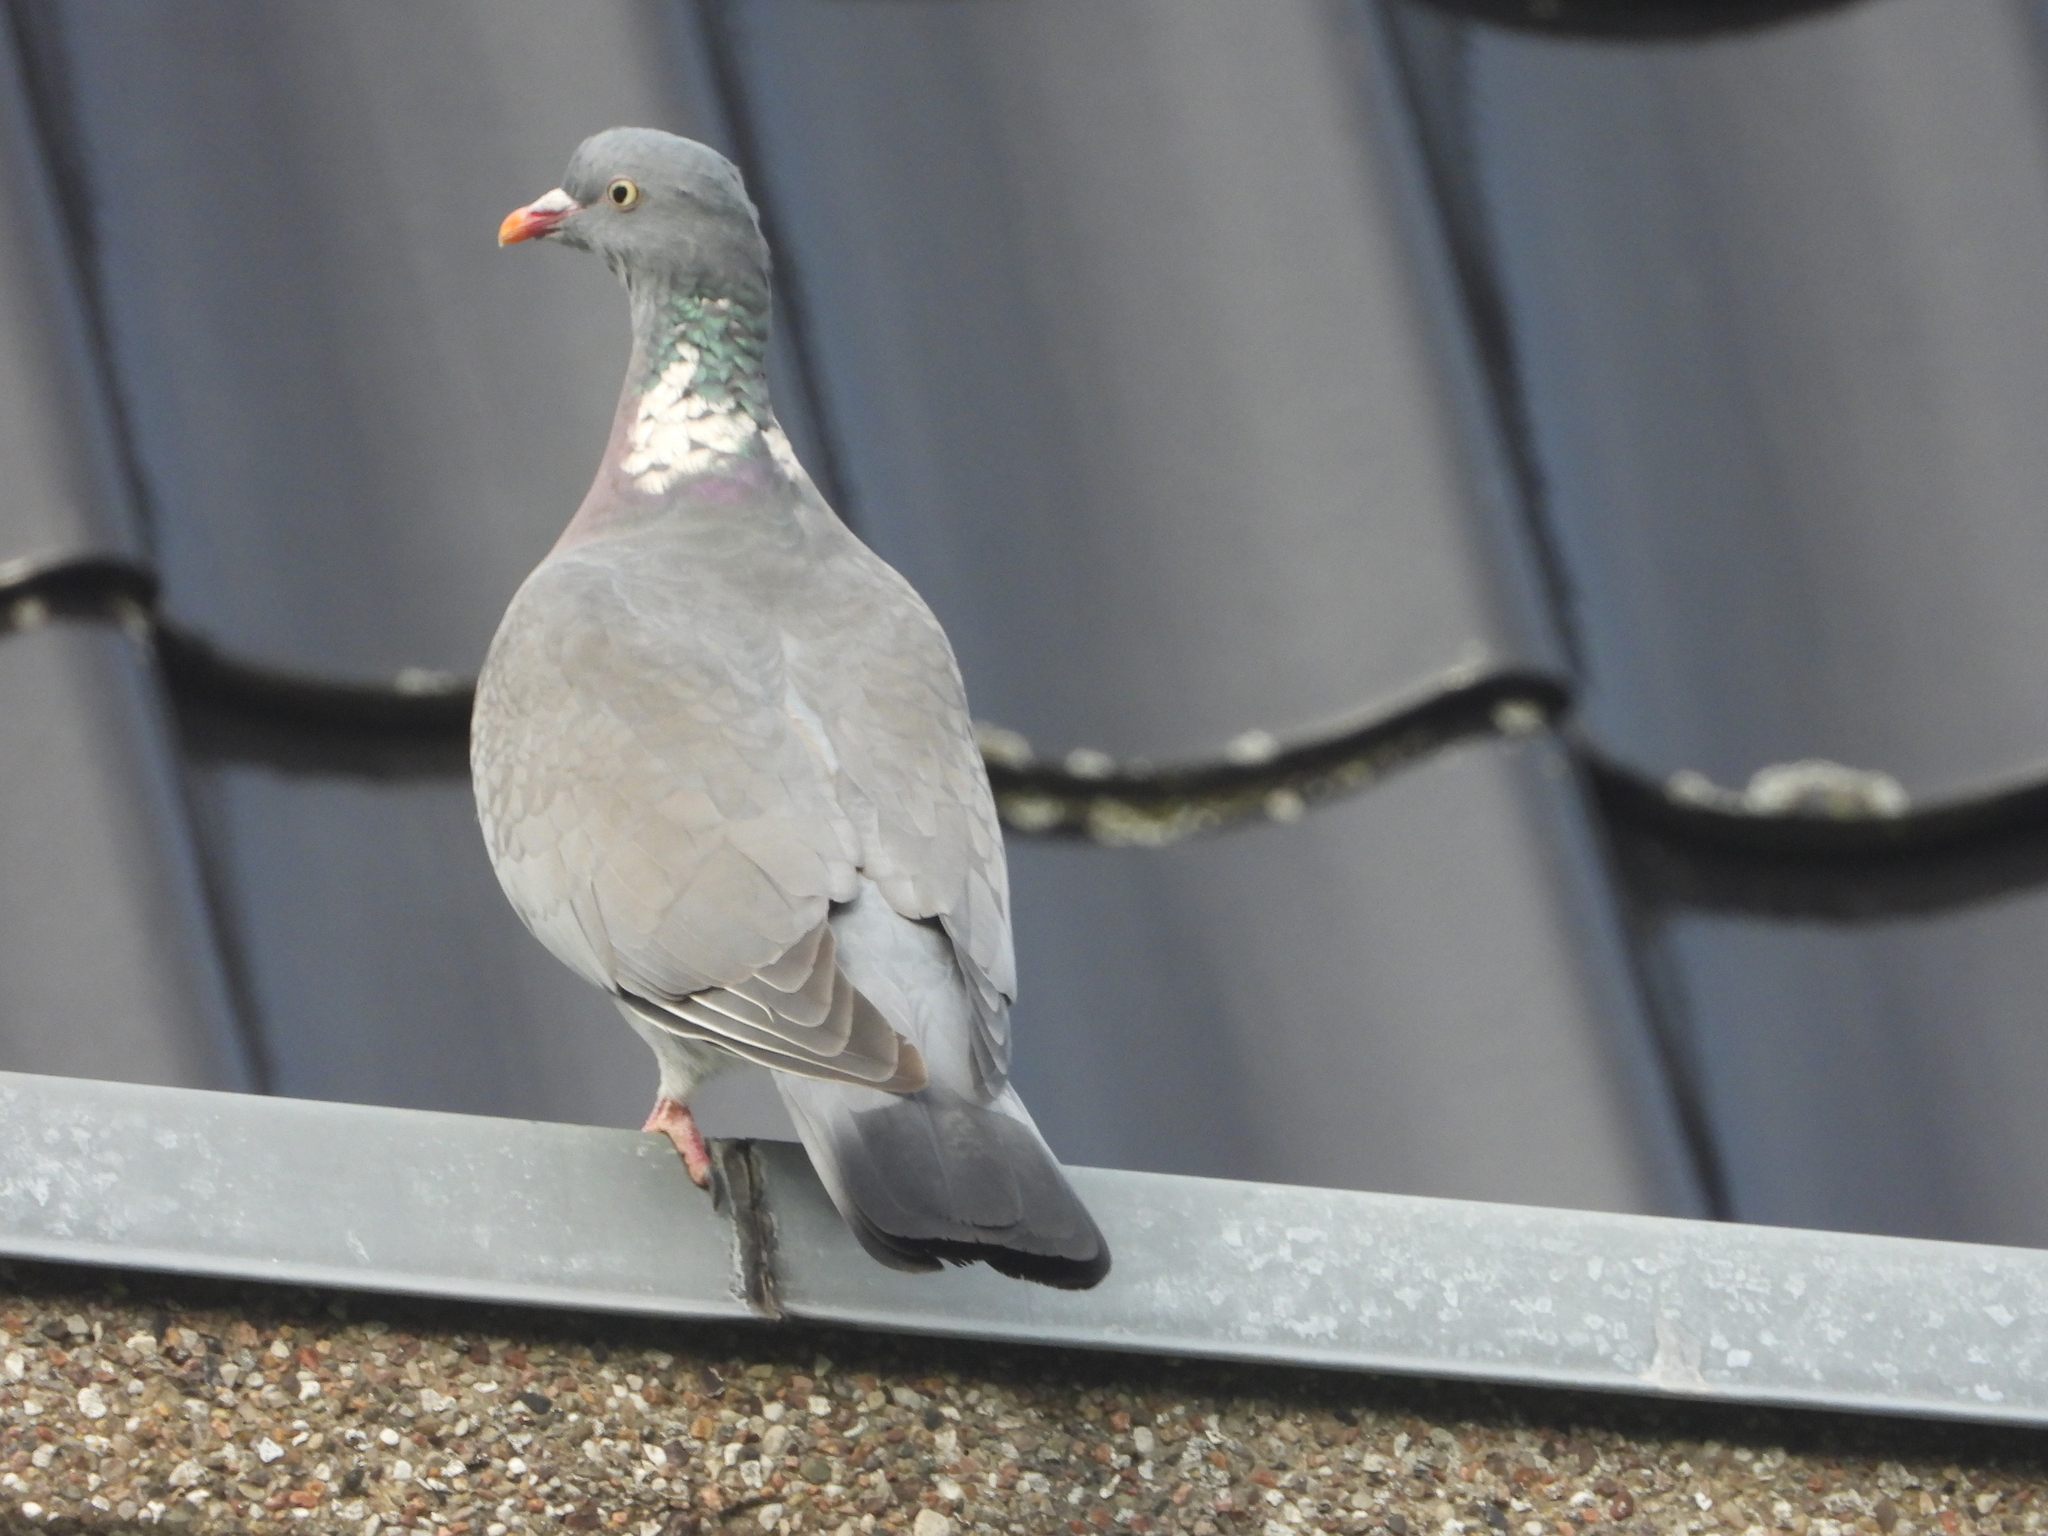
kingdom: Animalia
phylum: Chordata
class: Aves
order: Columbiformes
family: Columbidae
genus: Columba
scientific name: Columba palumbus
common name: Common wood pigeon
